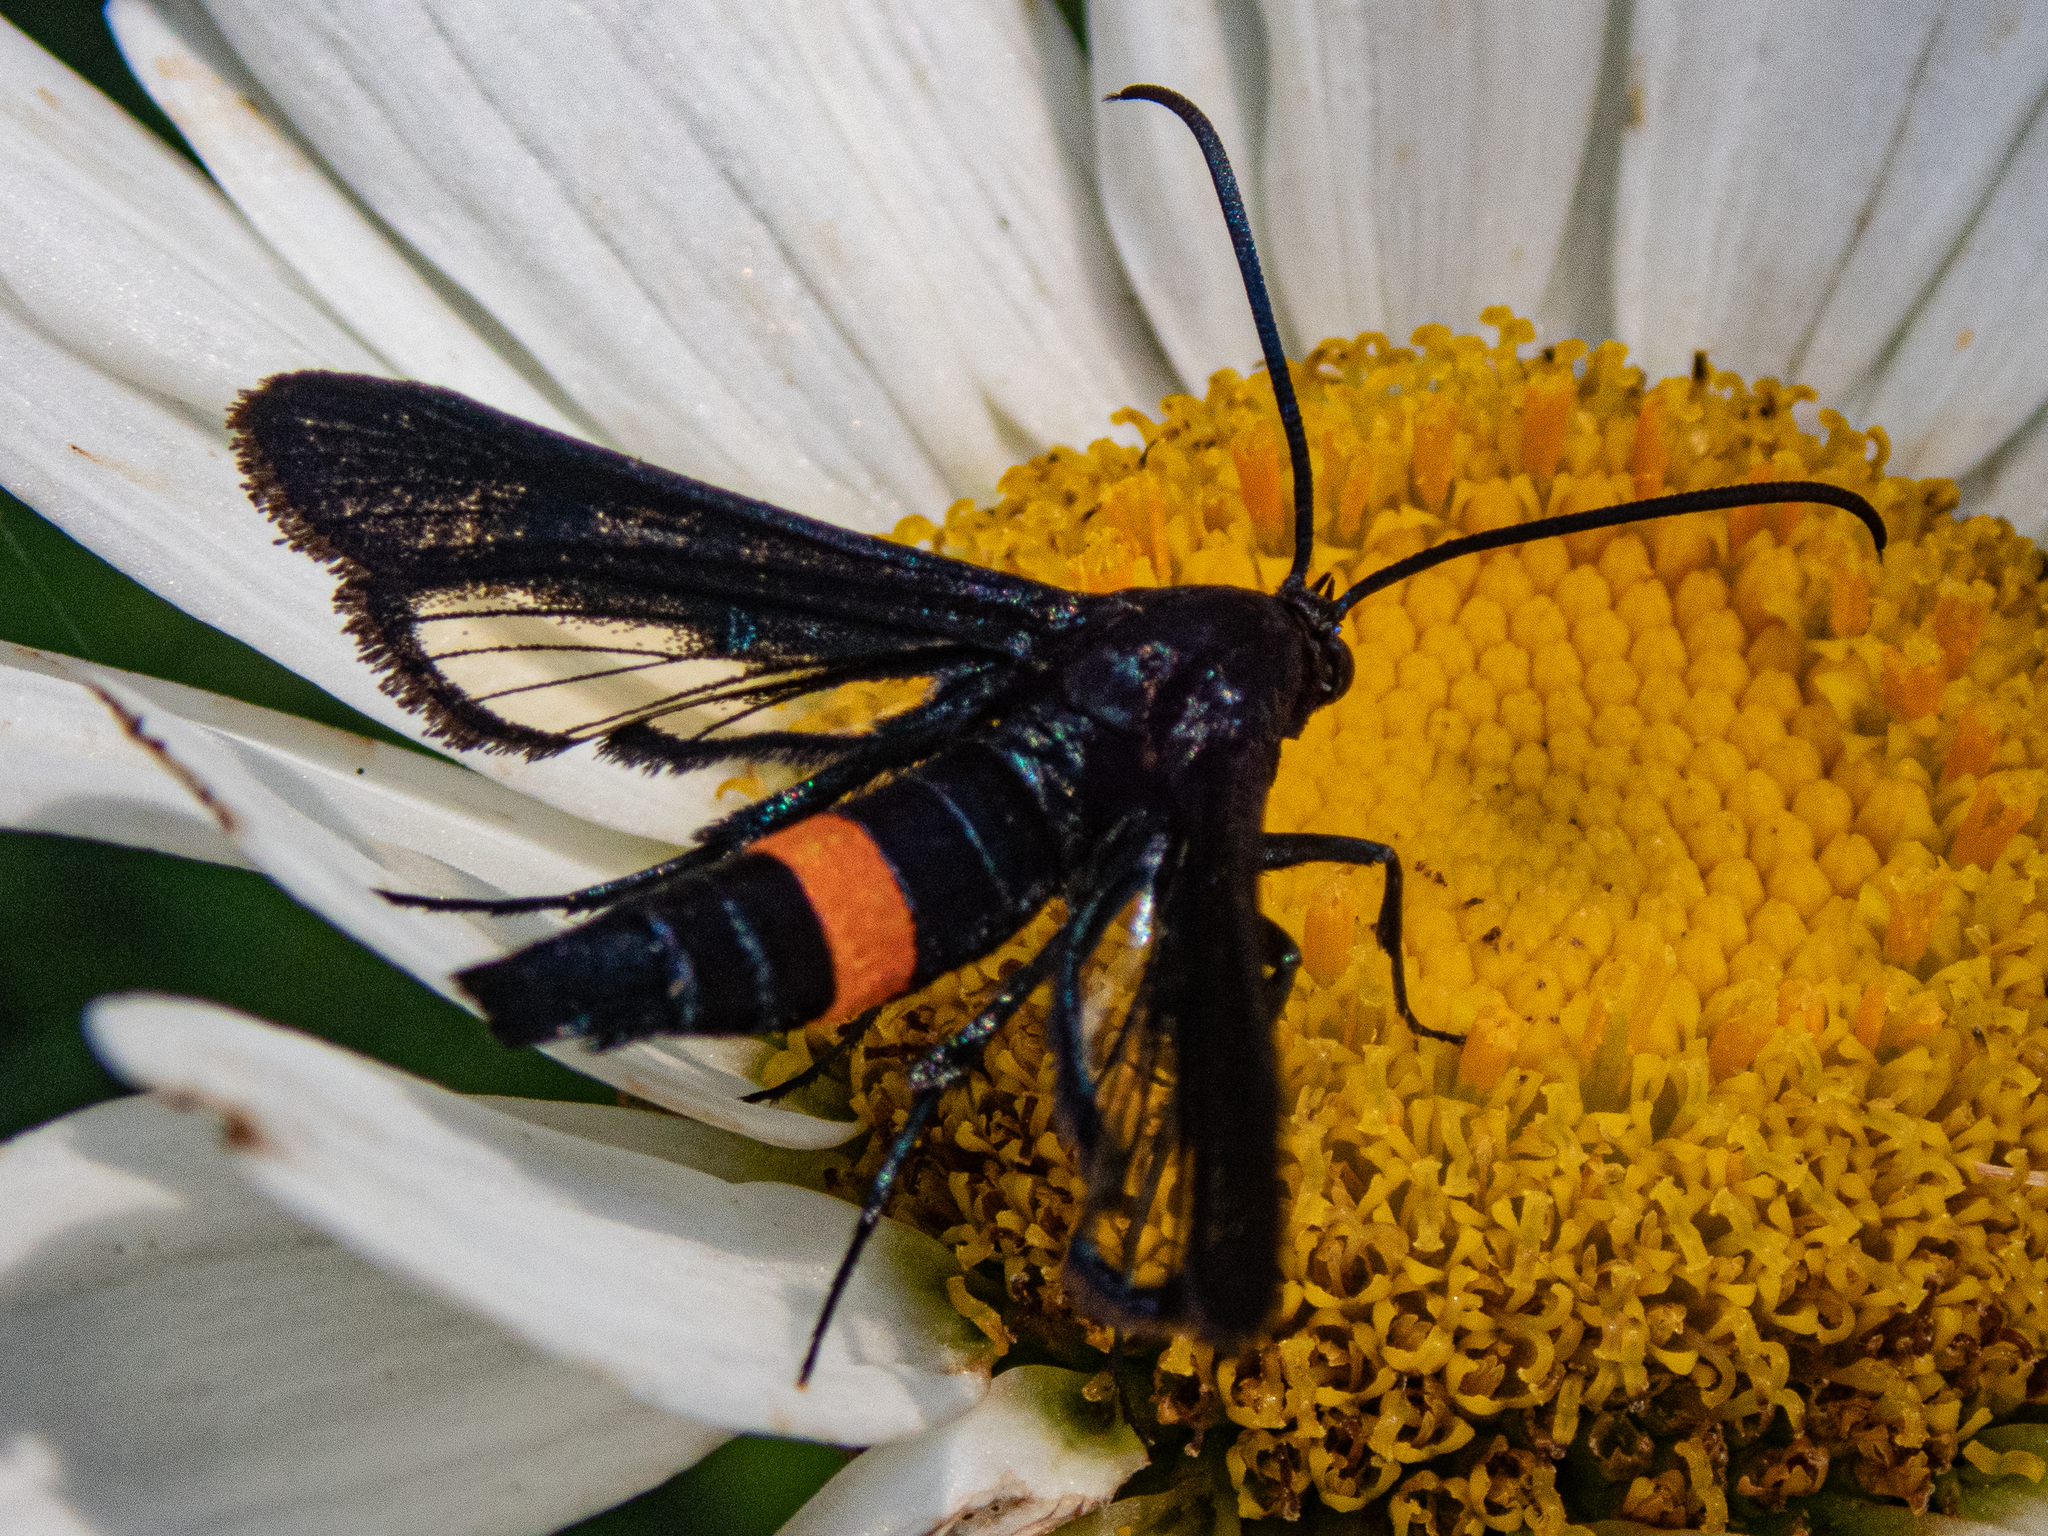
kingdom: Animalia
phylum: Arthropoda
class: Insecta
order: Lepidoptera
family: Sesiidae
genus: Synanthedon
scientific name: Synanthedon exitiosa
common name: Peachtree borer moth
